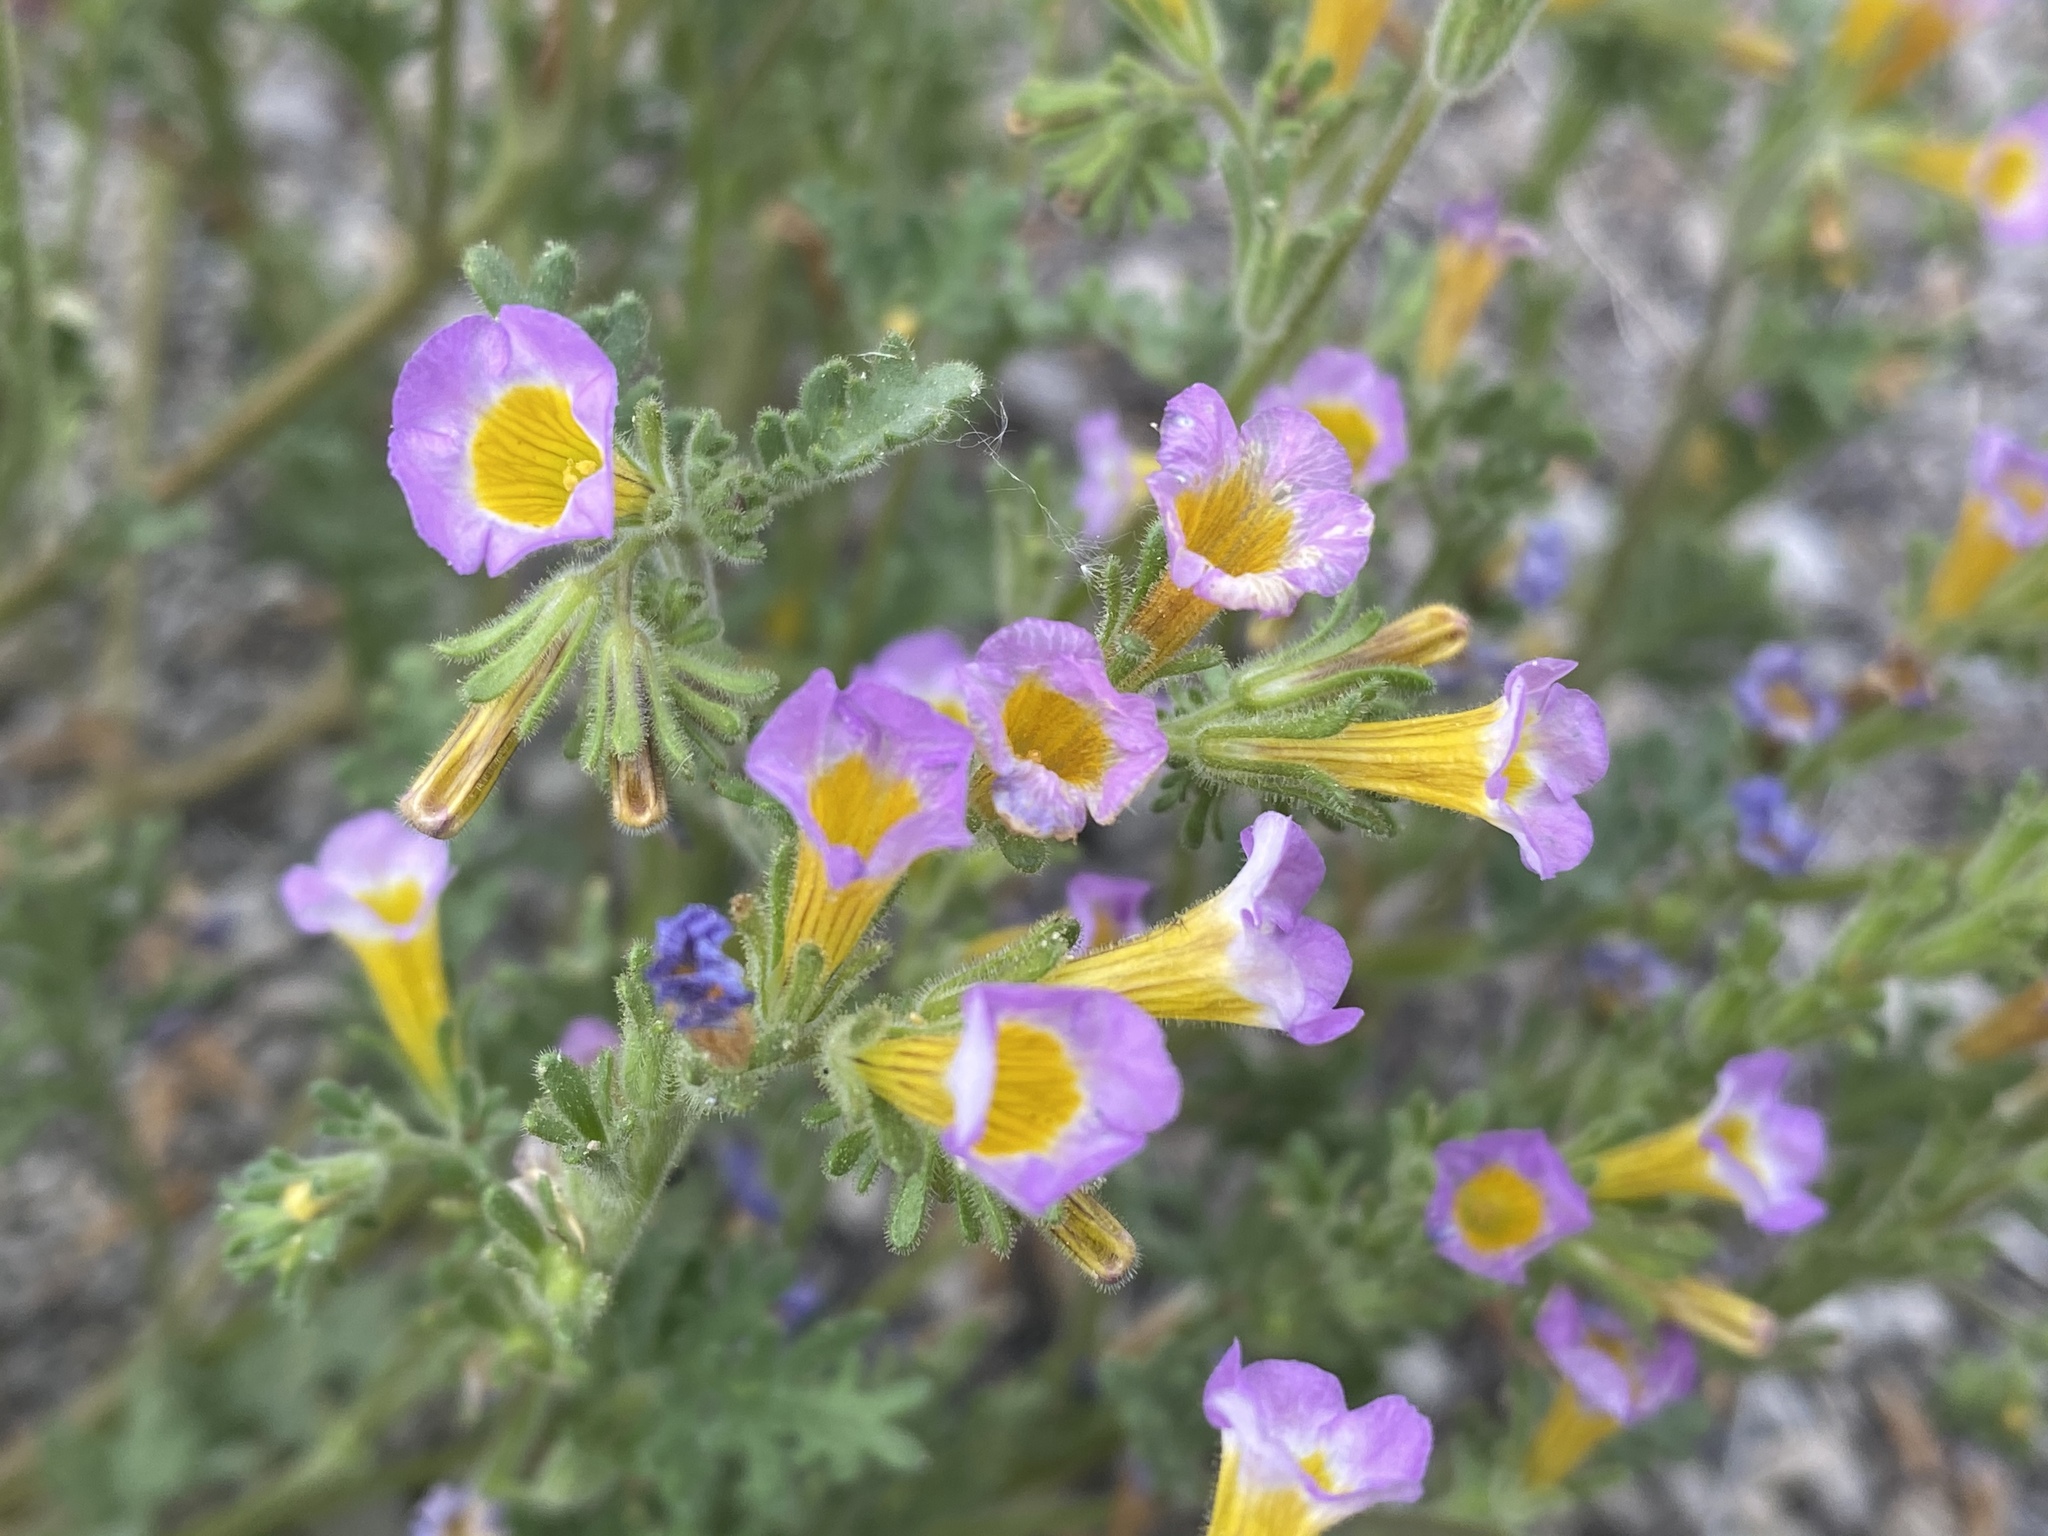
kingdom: Plantae
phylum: Tracheophyta
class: Magnoliopsida
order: Boraginales
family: Hydrophyllaceae
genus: Phacelia
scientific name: Phacelia bicolor
